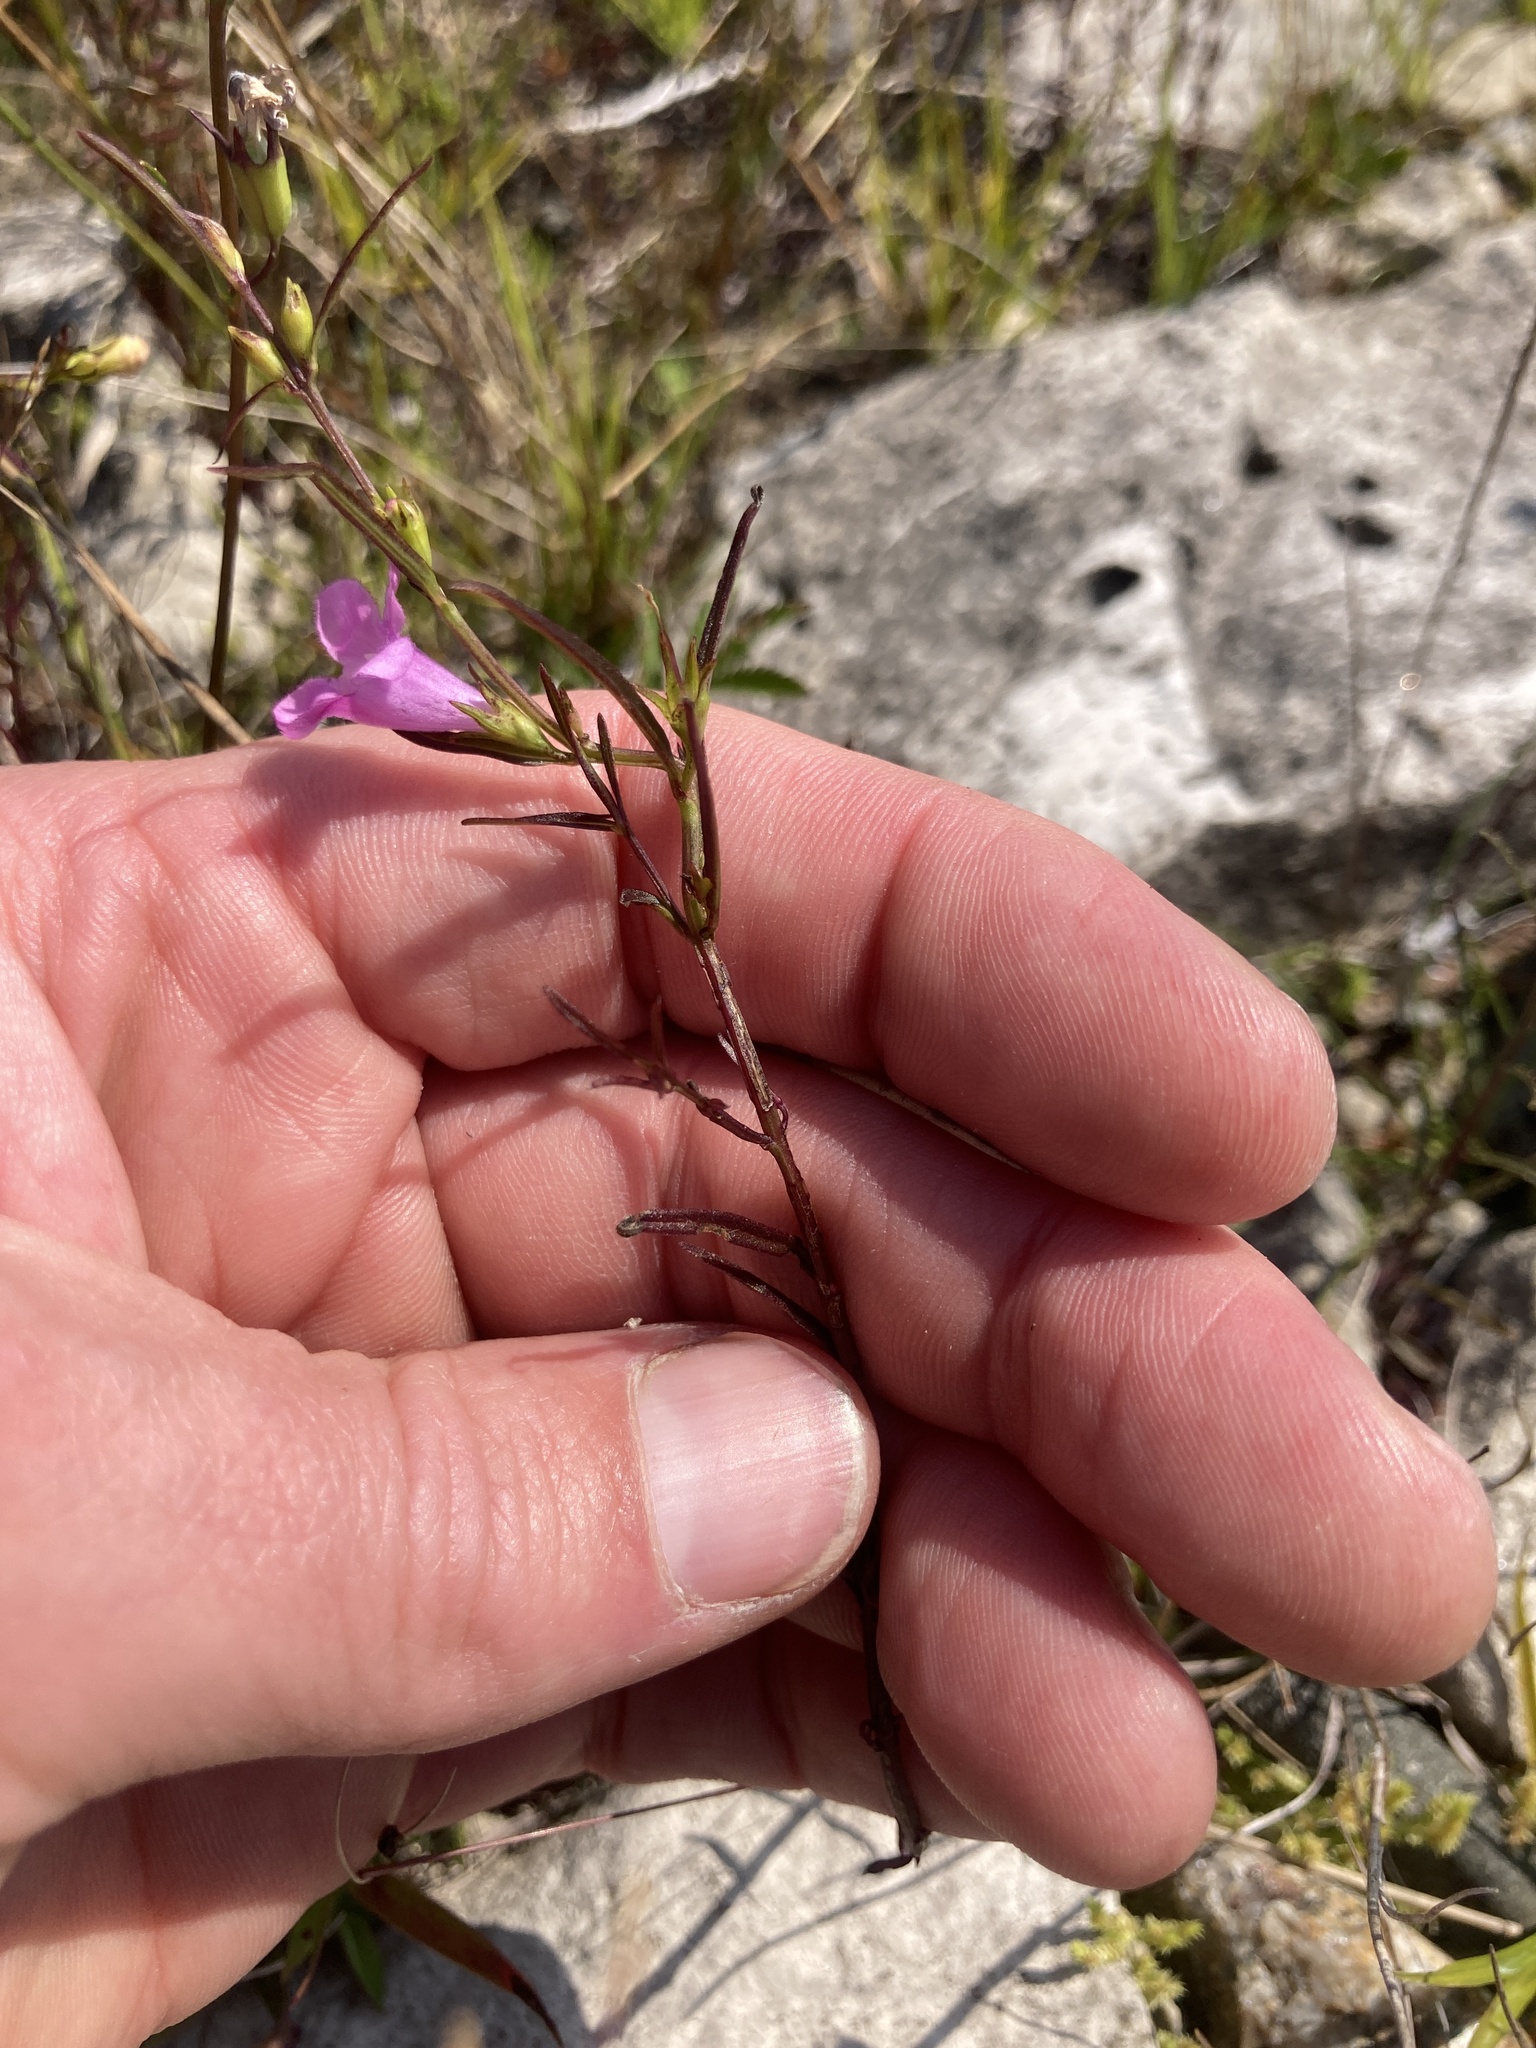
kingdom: Plantae
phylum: Tracheophyta
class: Magnoliopsida
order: Lamiales
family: Orobanchaceae
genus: Agalinis
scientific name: Agalinis purpurea
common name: Purple false foxglove
